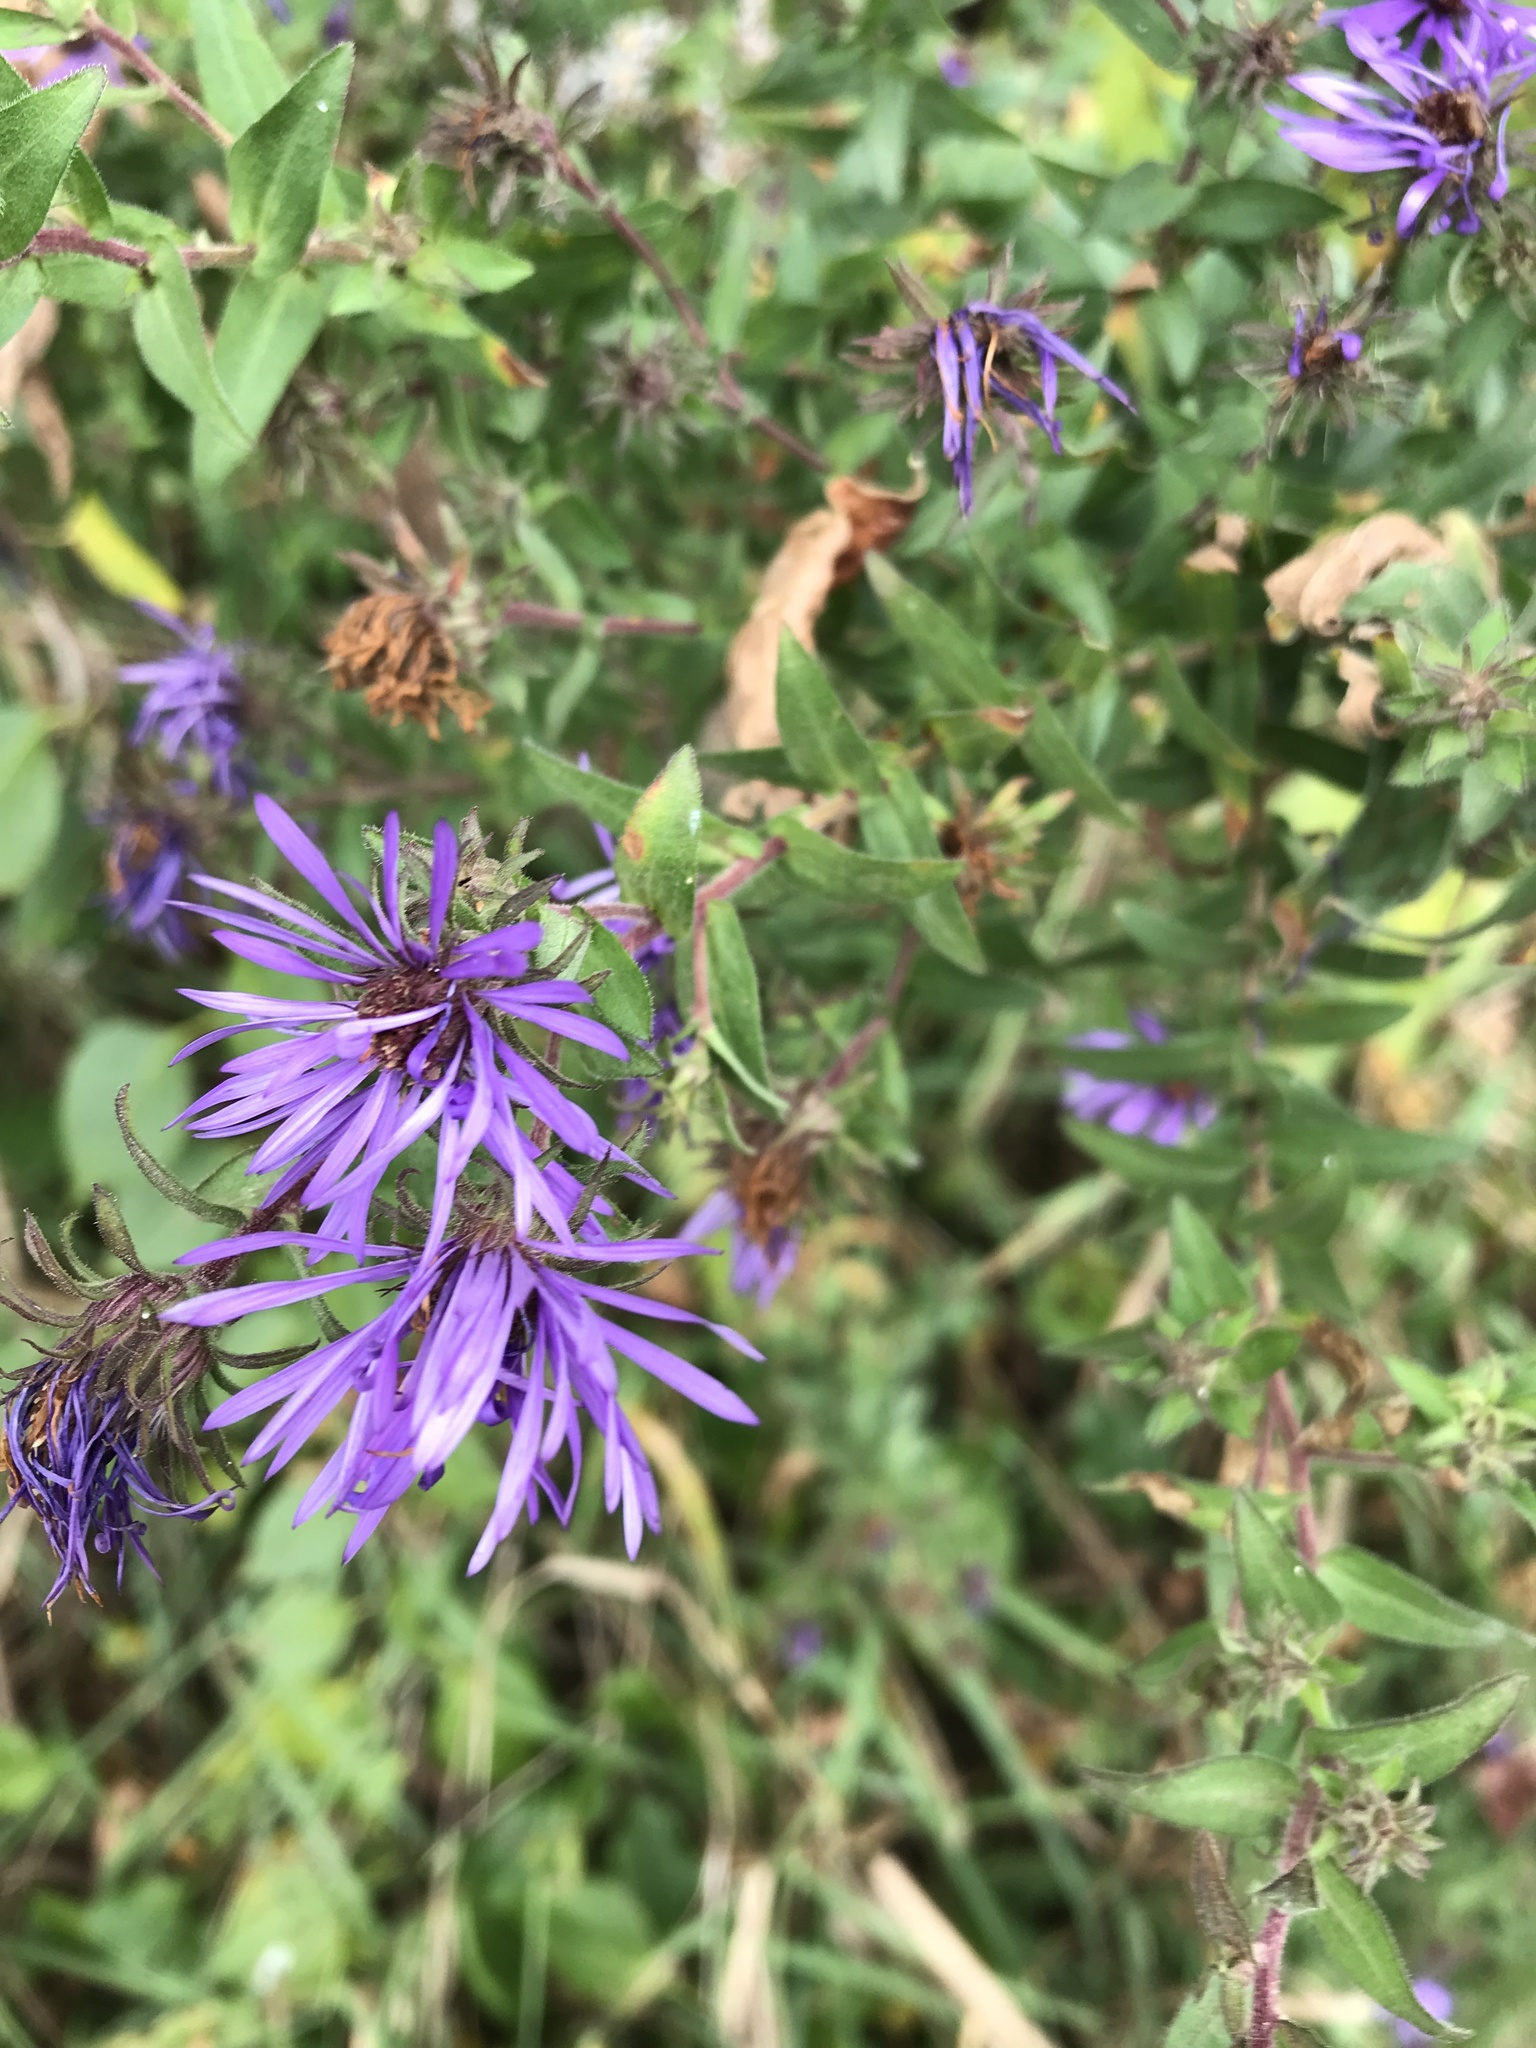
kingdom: Plantae
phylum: Tracheophyta
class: Magnoliopsida
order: Asterales
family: Asteraceae
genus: Symphyotrichum
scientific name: Symphyotrichum novae-angliae
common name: Michaelmas daisy
